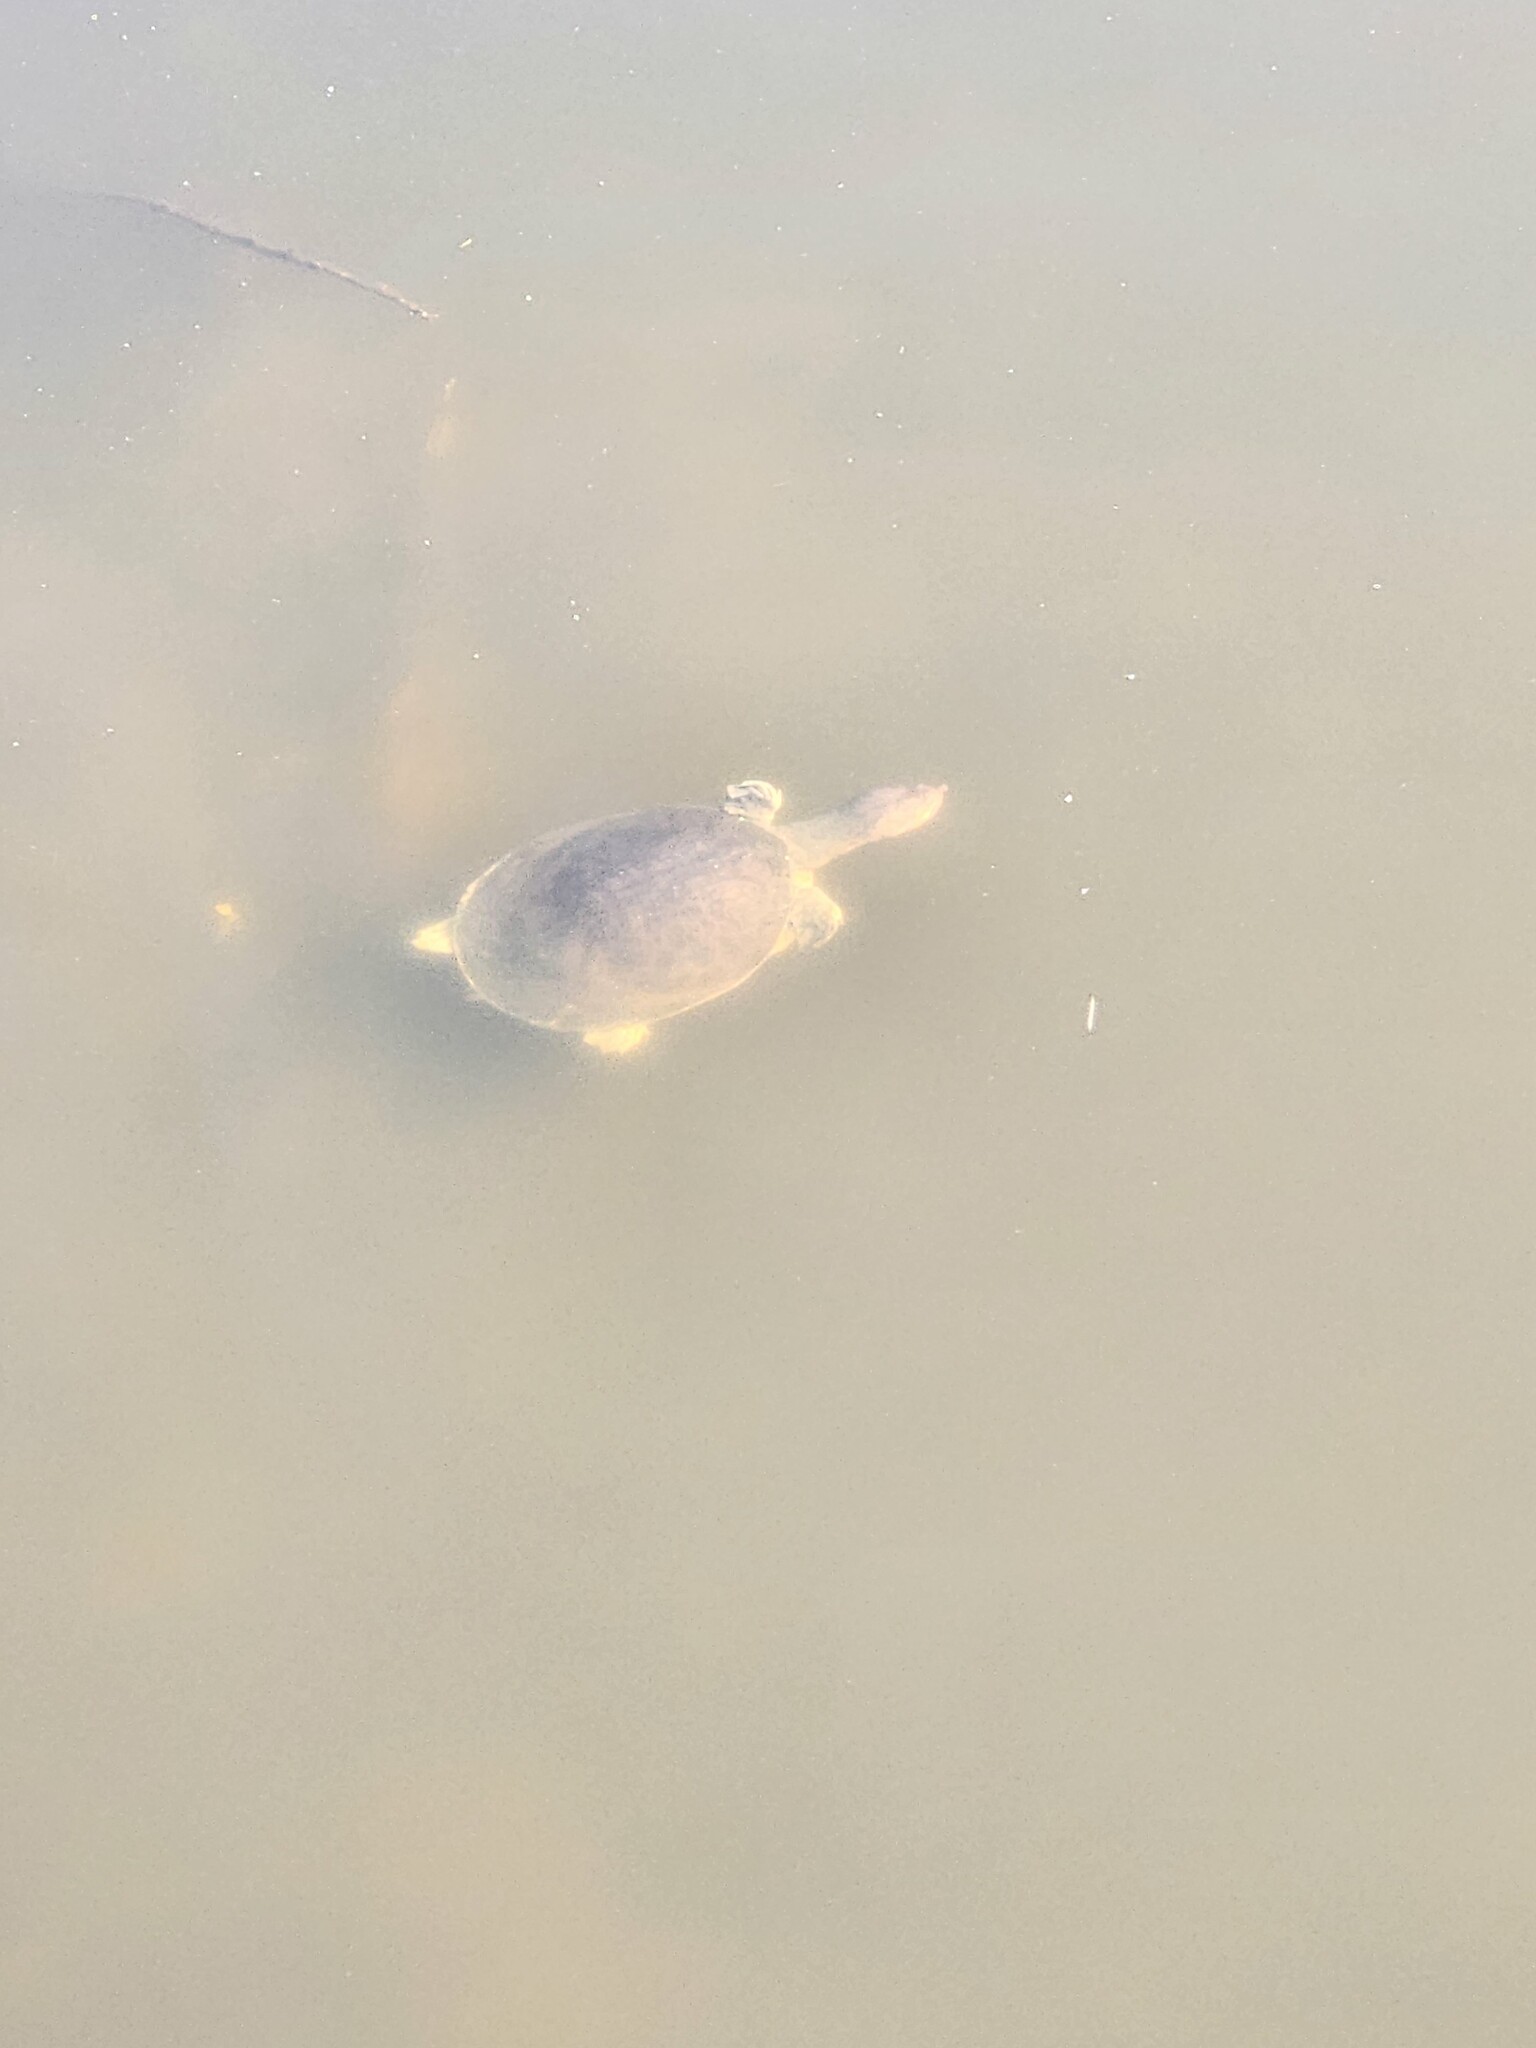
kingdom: Animalia
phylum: Chordata
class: Testudines
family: Trionychidae
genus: Apalone
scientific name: Apalone ferox
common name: Florida softshell turtle
